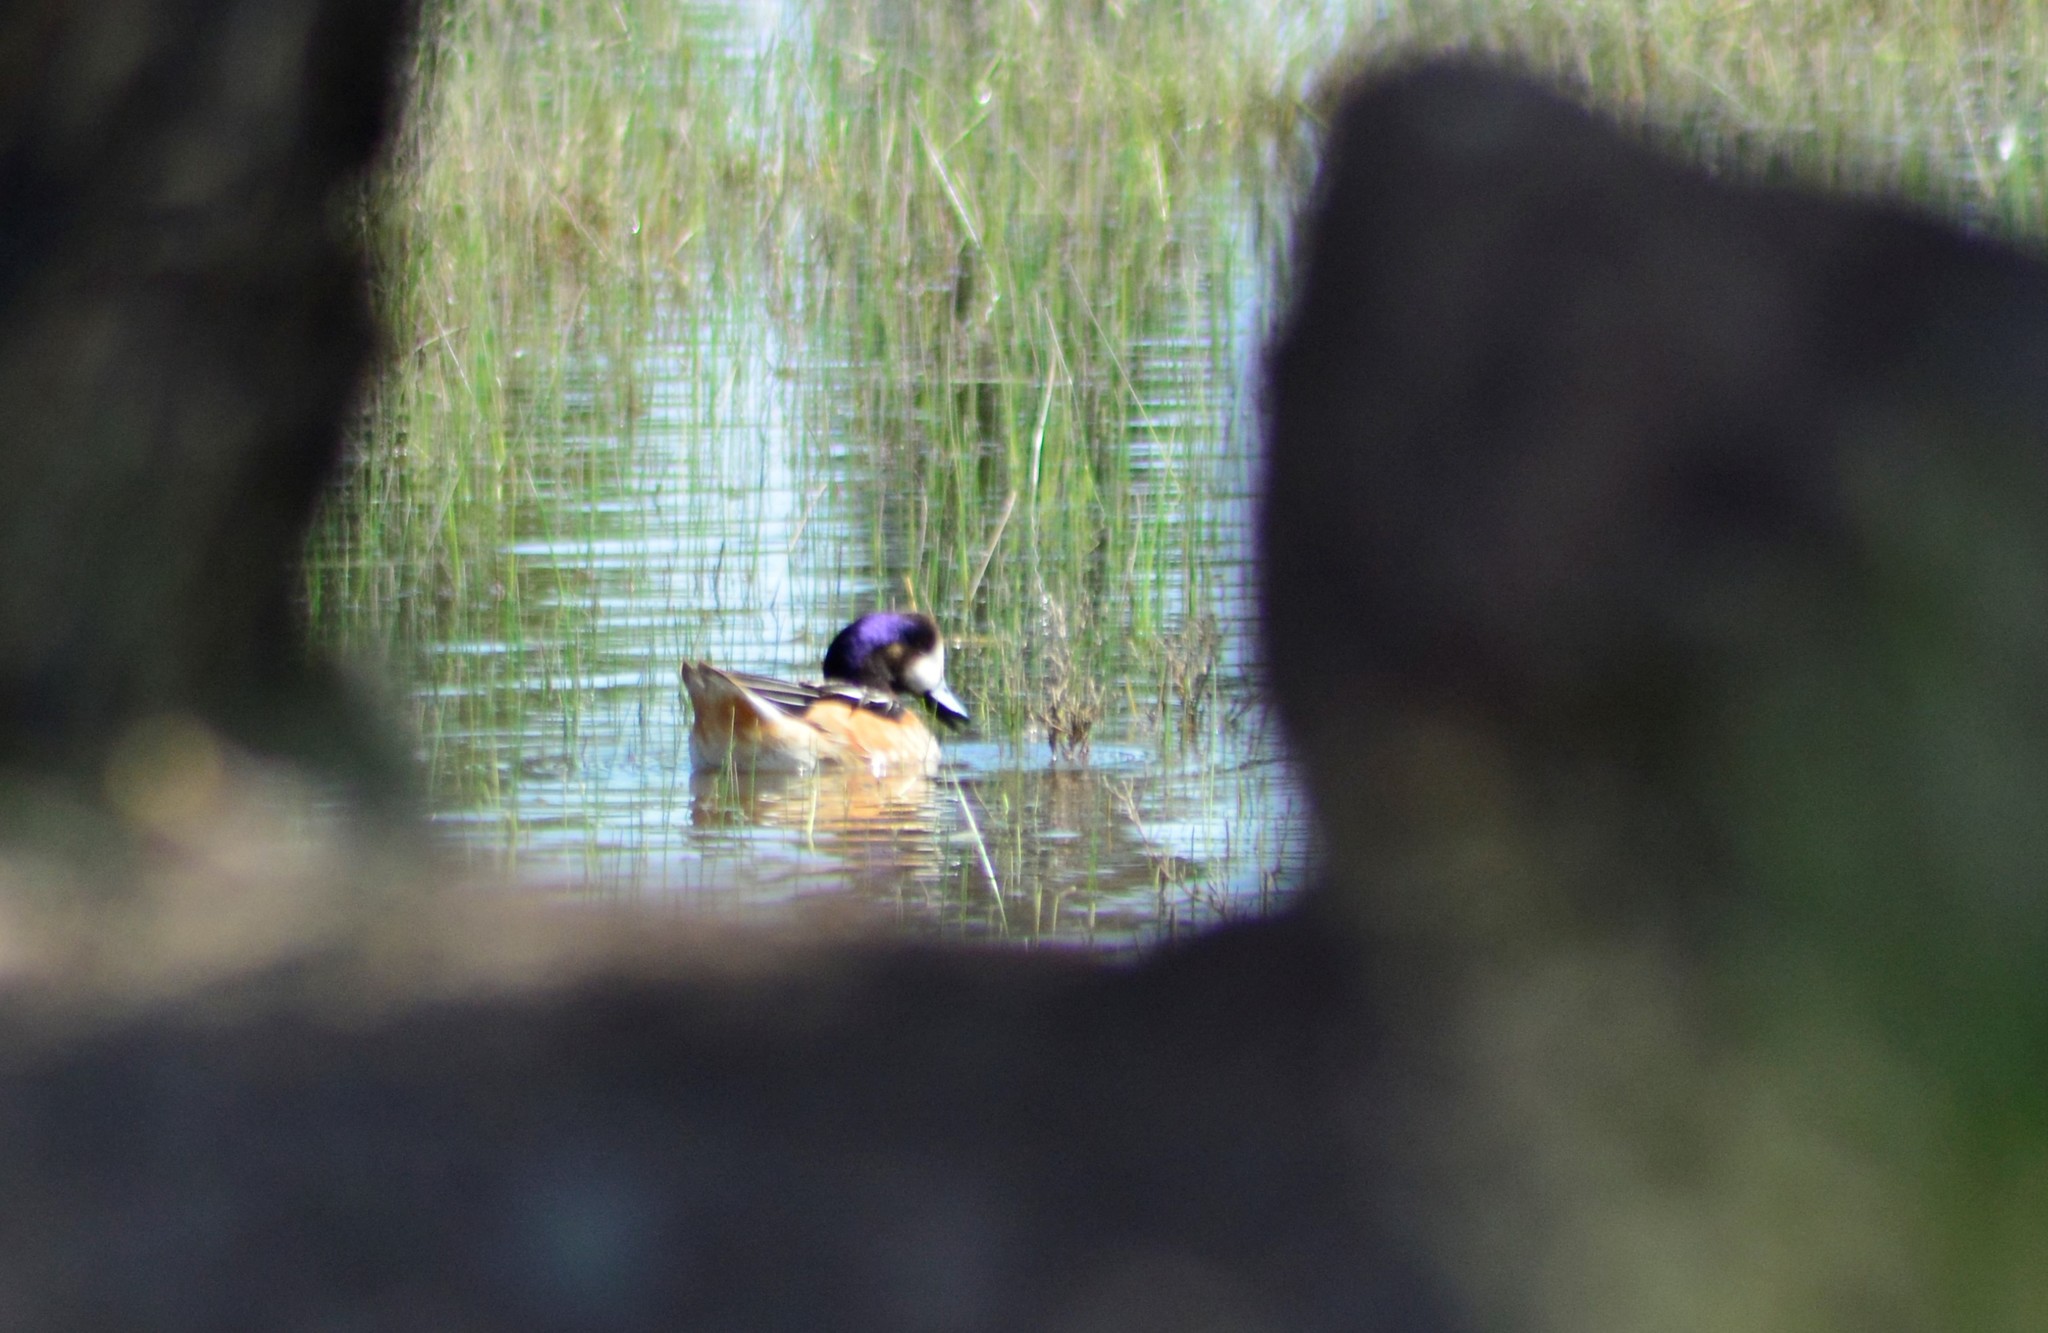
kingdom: Animalia
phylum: Chordata
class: Aves
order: Anseriformes
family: Anatidae
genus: Mareca
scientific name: Mareca sibilatrix
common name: Chiloe wigeon
